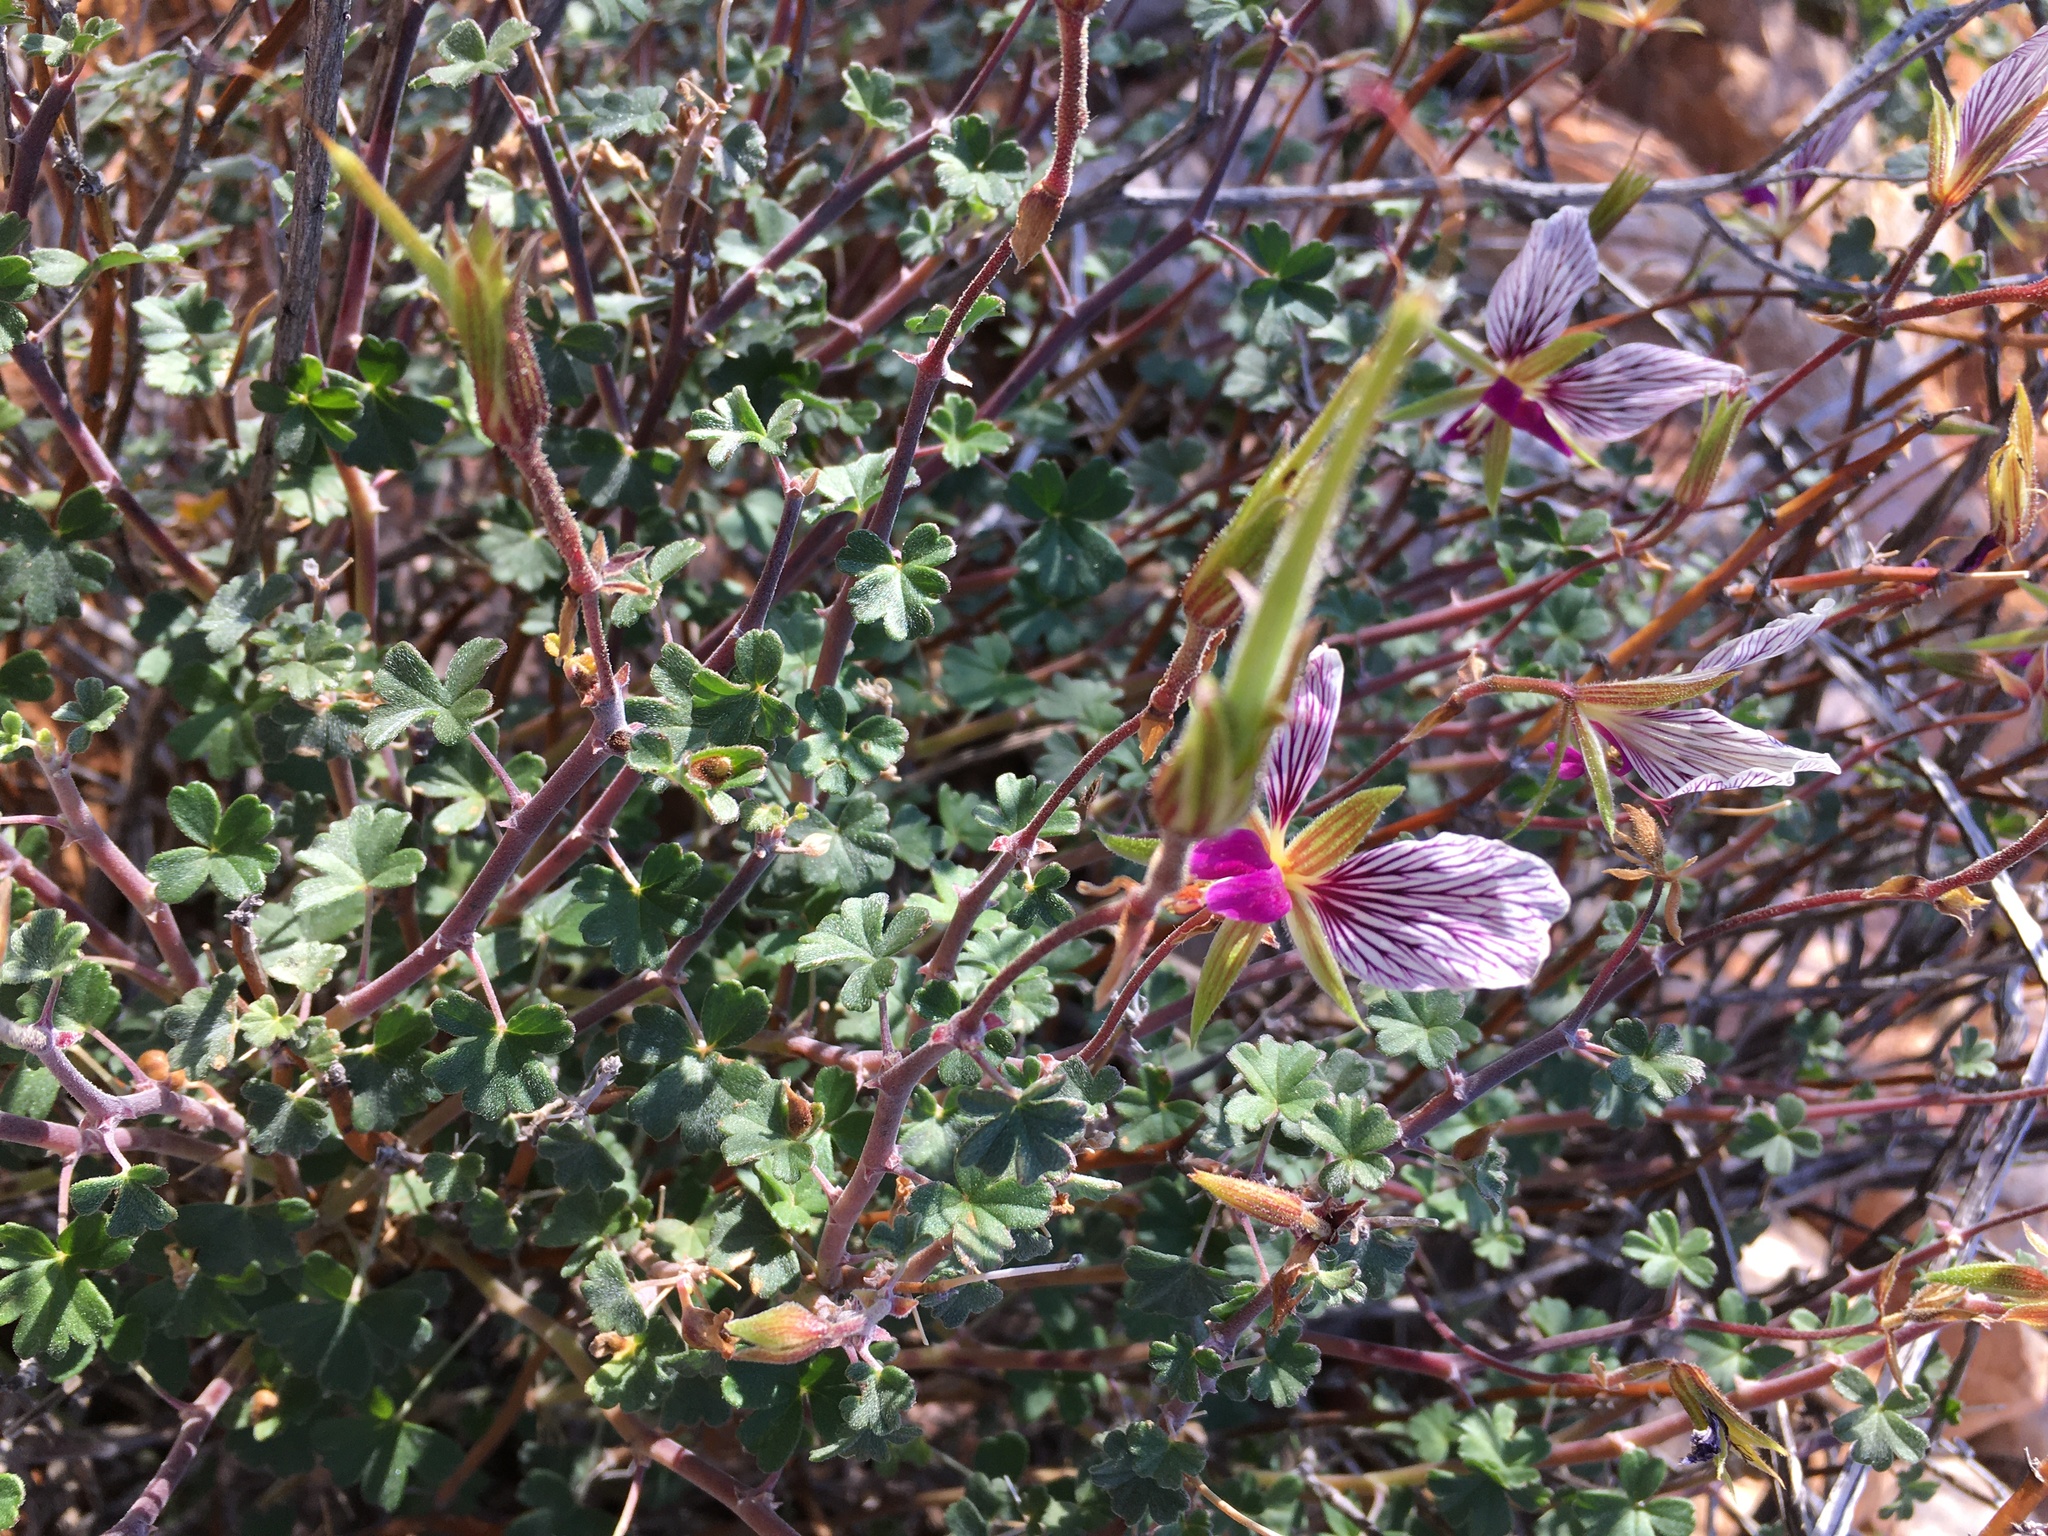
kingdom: Plantae
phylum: Tracheophyta
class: Magnoliopsida
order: Geraniales
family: Geraniaceae
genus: Pelargonium
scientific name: Pelargonium praemorsum
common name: Quinate-leaf pelargonium
